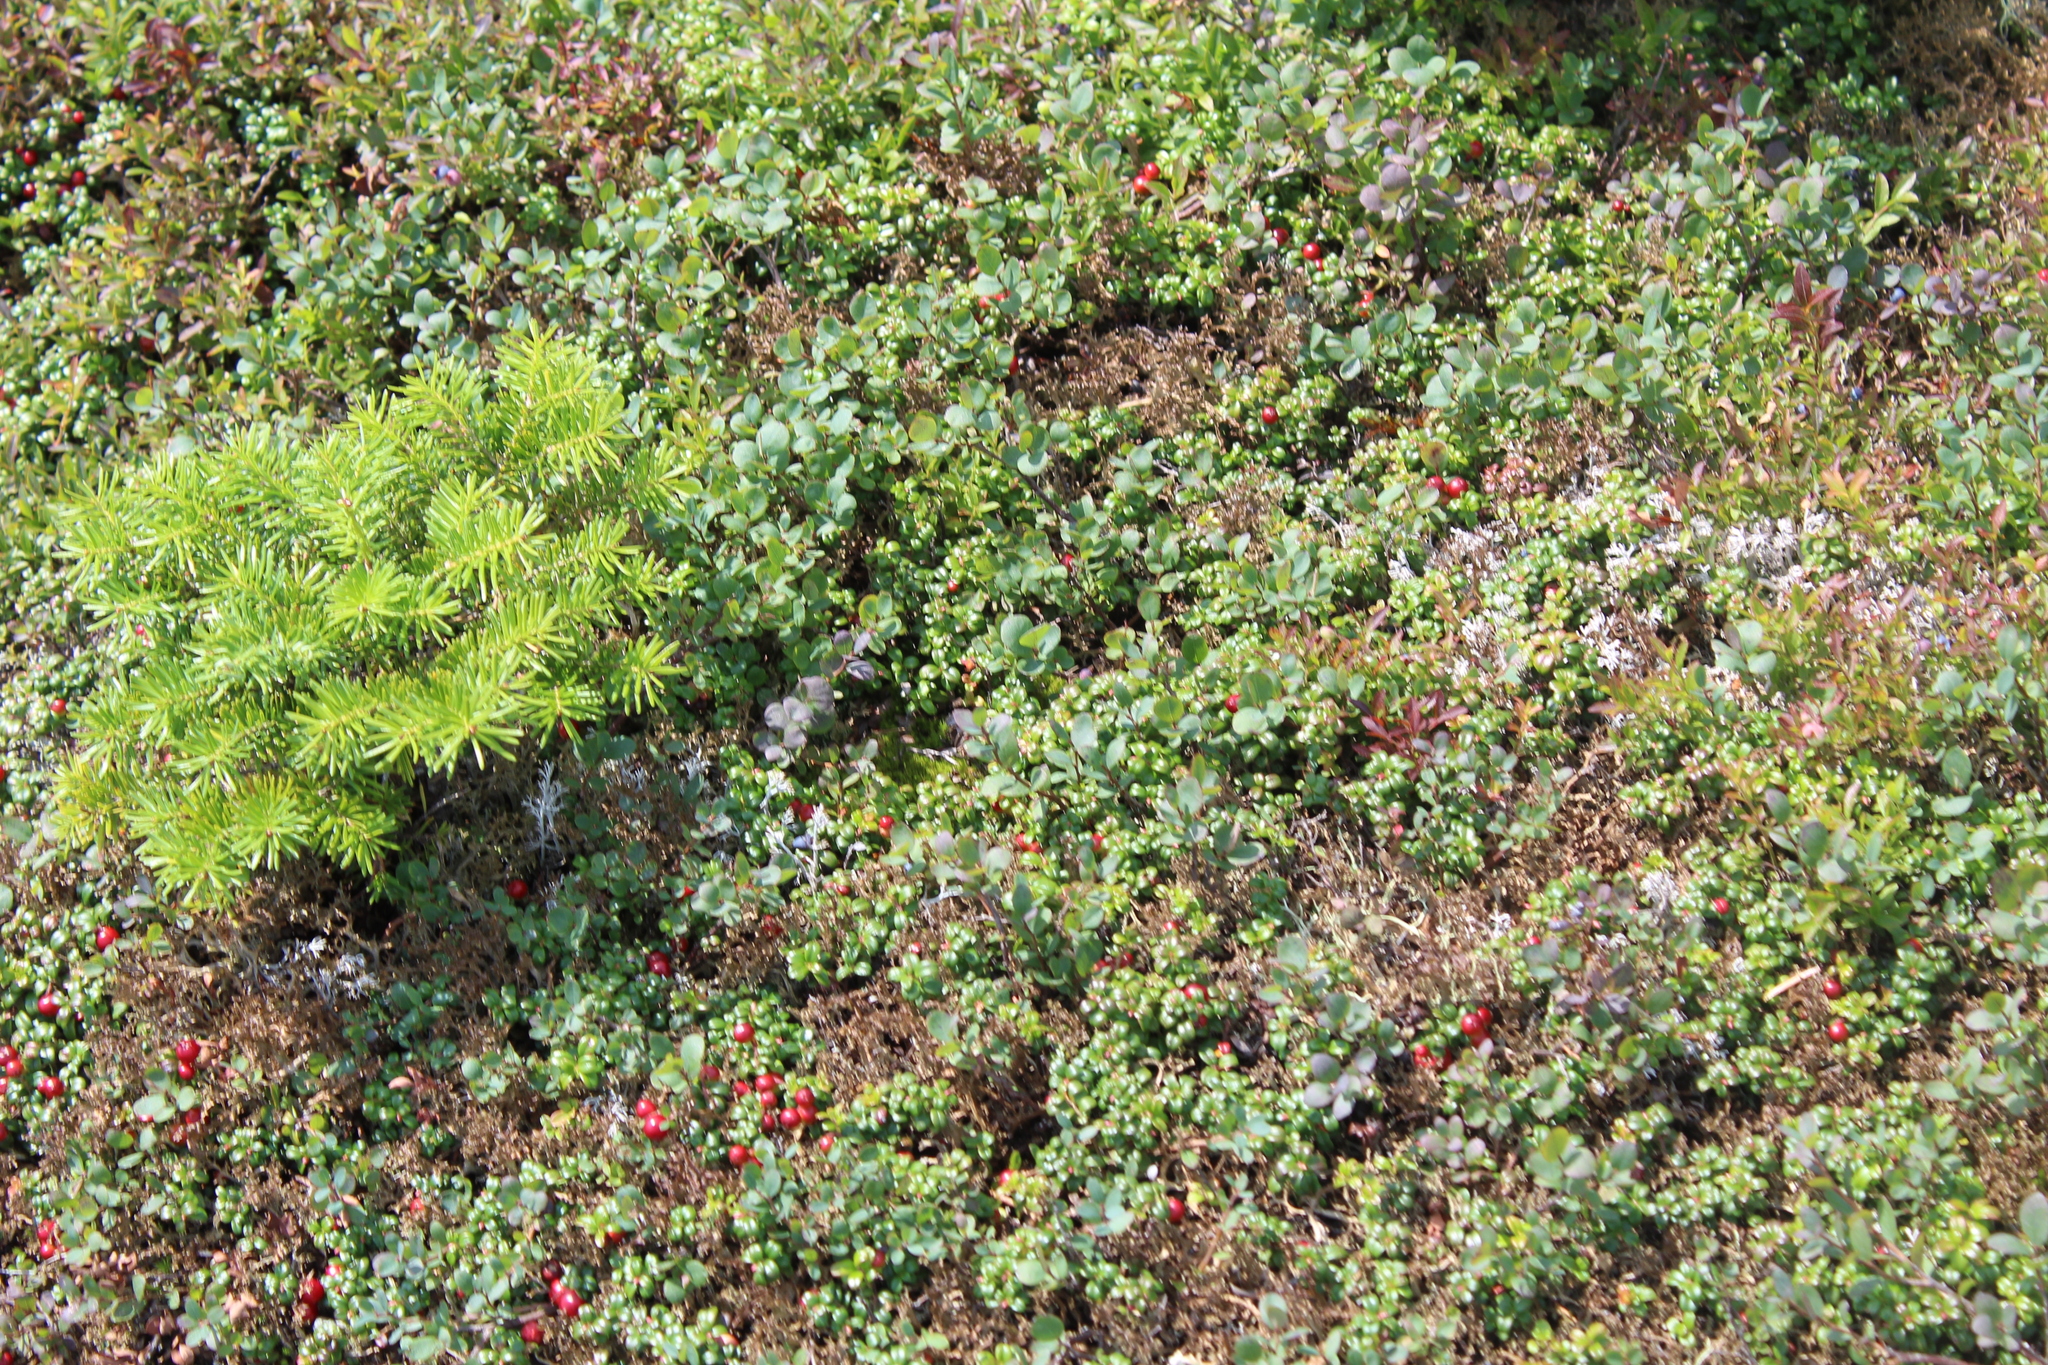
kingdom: Plantae
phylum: Tracheophyta
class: Magnoliopsida
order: Ericales
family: Ericaceae
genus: Vaccinium
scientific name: Vaccinium uliginosum
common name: Bog bilberry
